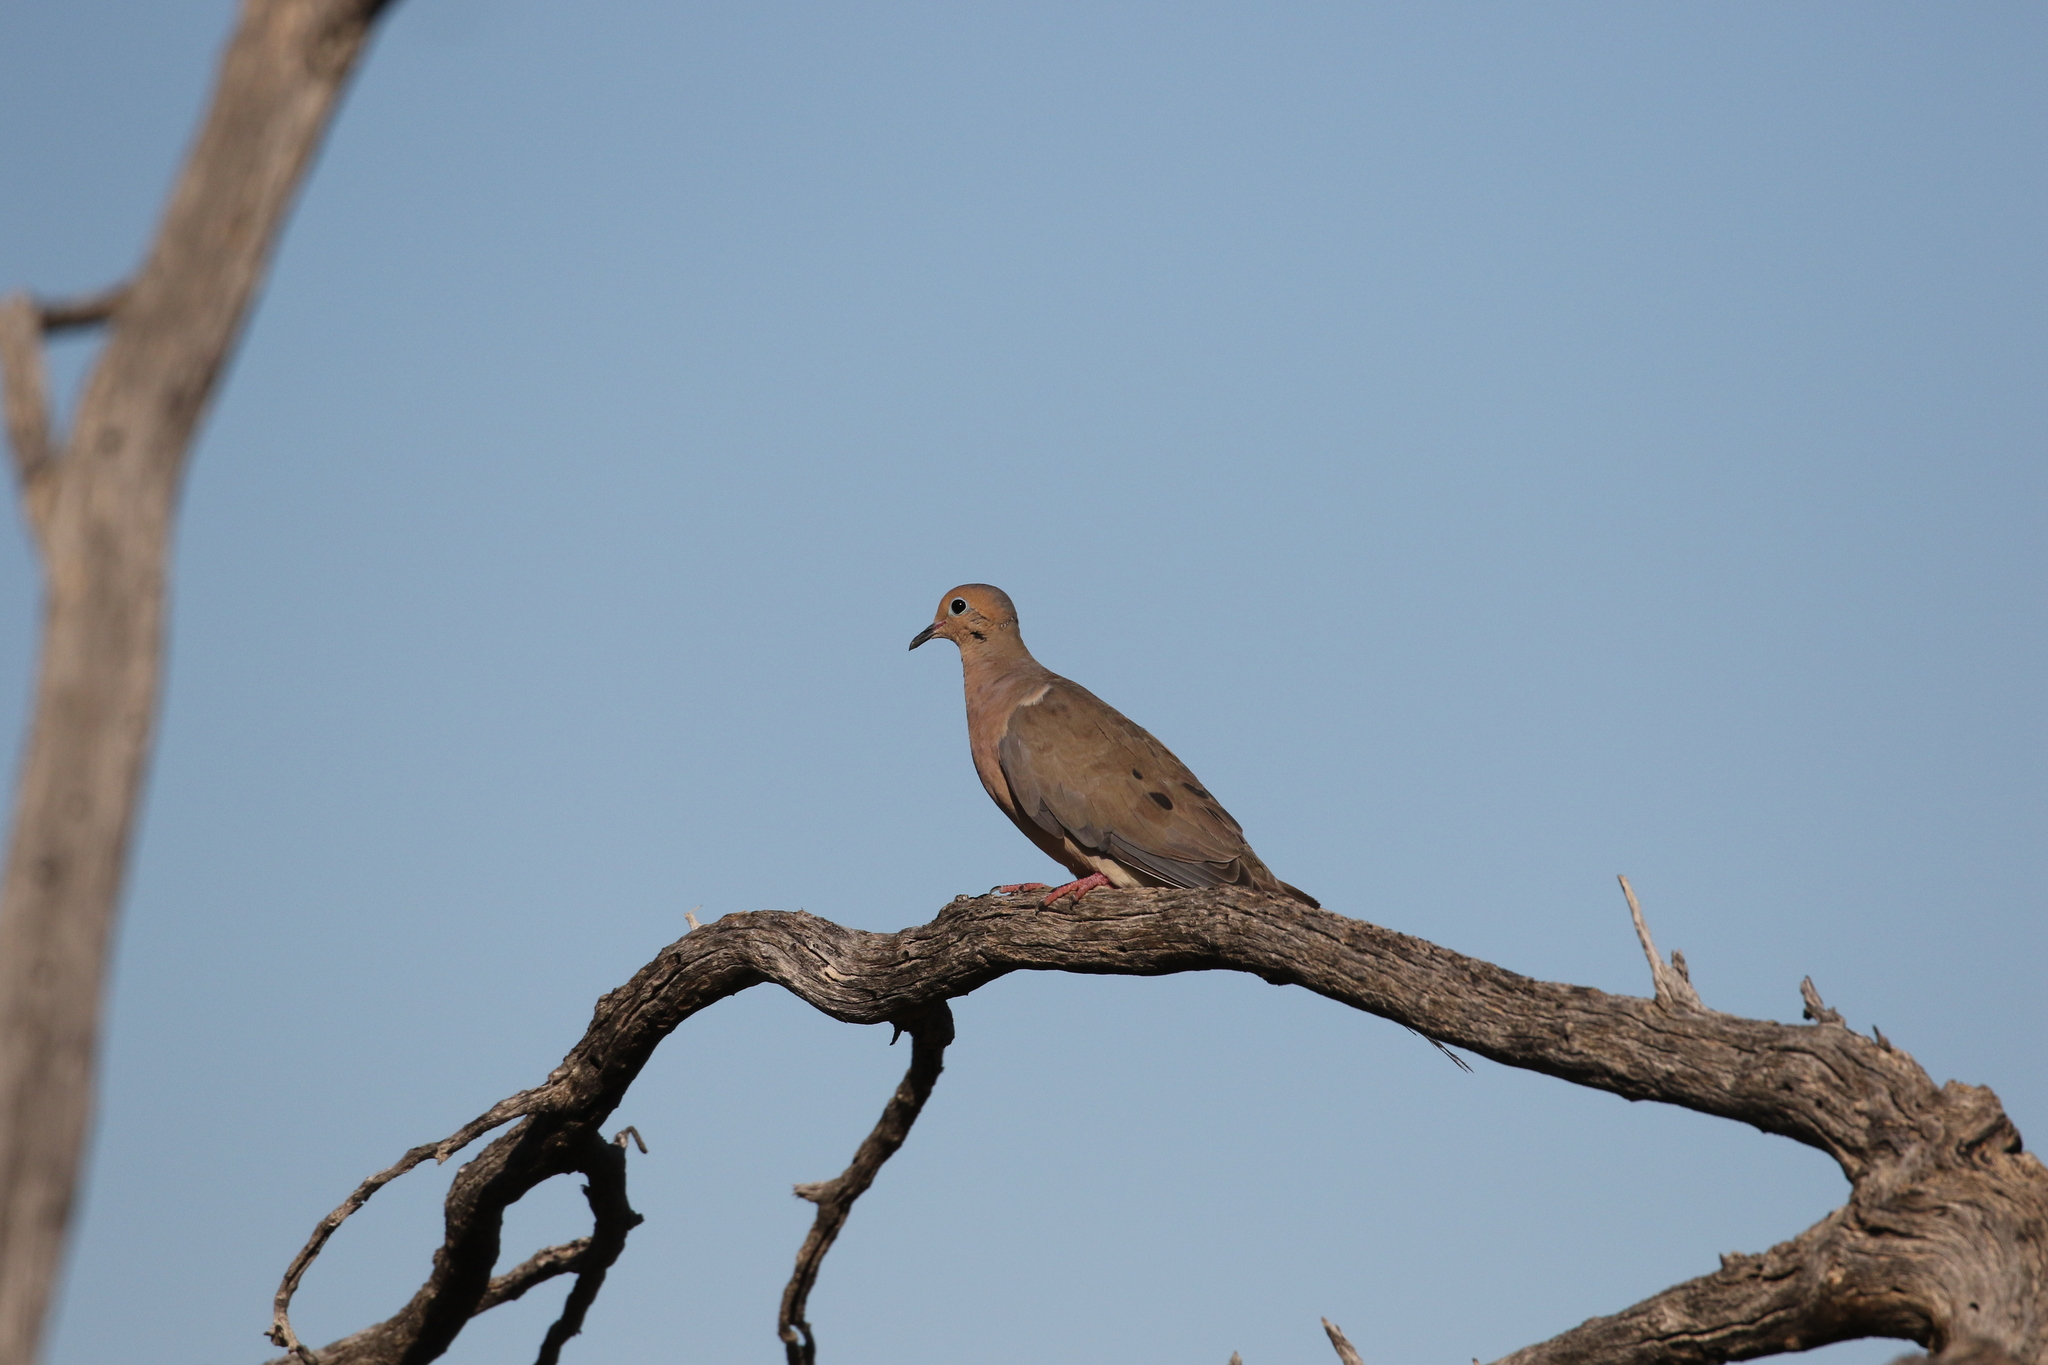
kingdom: Animalia
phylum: Chordata
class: Aves
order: Columbiformes
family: Columbidae
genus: Zenaida
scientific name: Zenaida macroura
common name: Mourning dove
